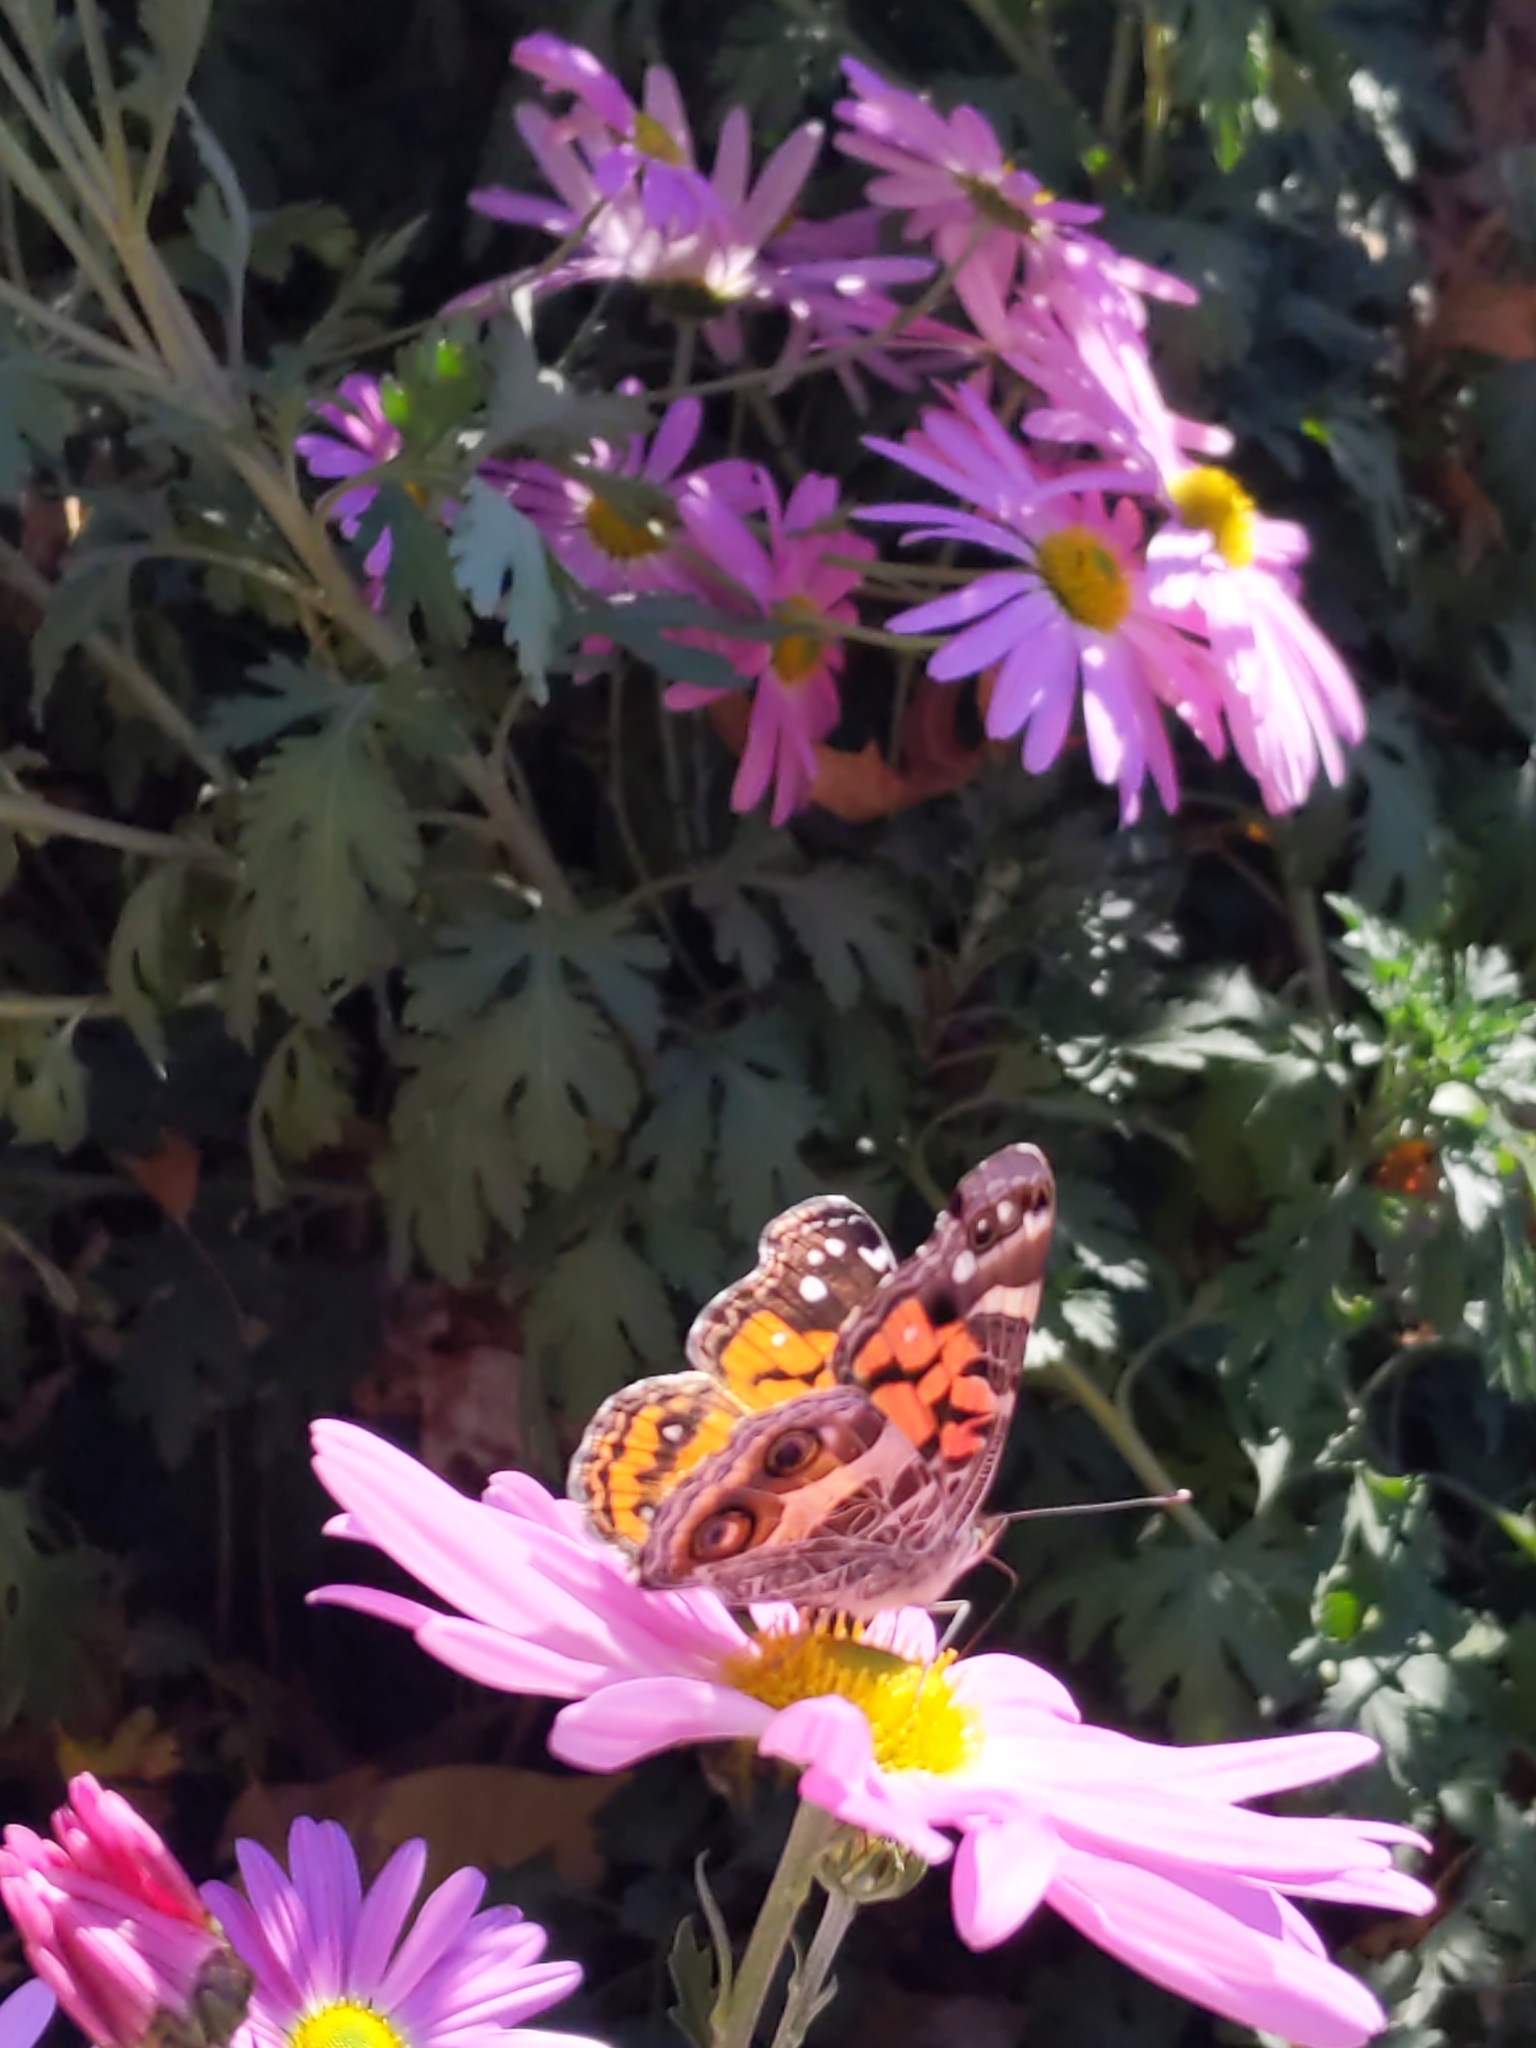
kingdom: Animalia
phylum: Arthropoda
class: Insecta
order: Lepidoptera
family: Nymphalidae
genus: Vanessa
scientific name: Vanessa virginiensis
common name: American lady
